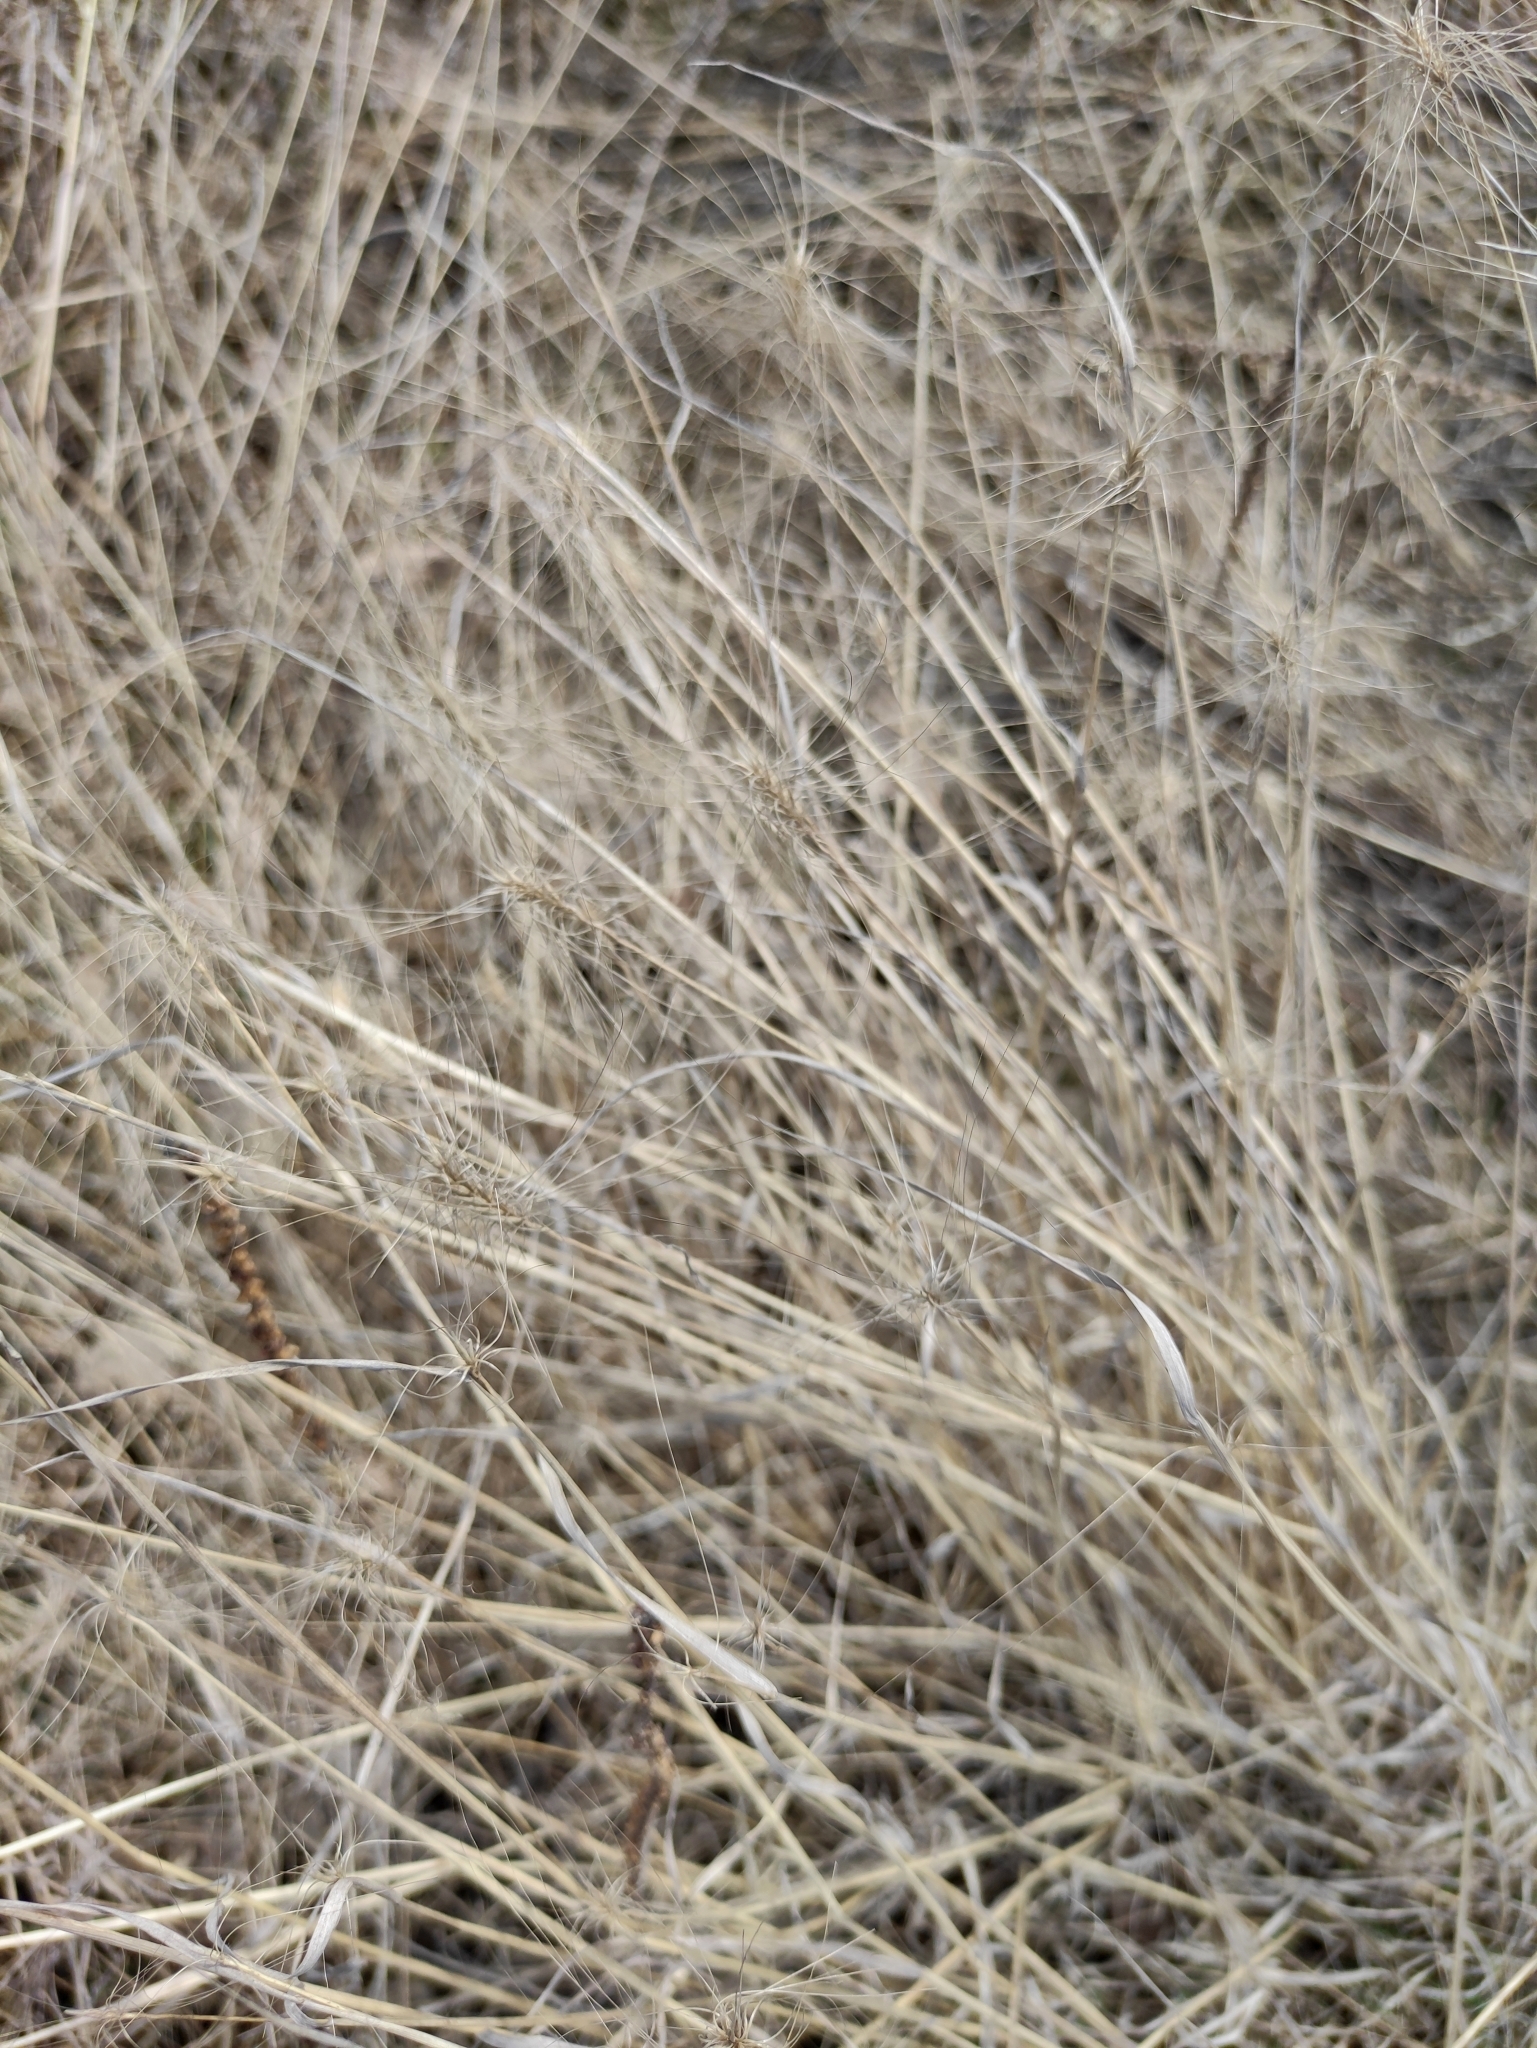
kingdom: Plantae
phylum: Tracheophyta
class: Liliopsida
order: Poales
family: Poaceae
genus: Hordeum
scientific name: Hordeum jubatum
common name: Foxtail barley
